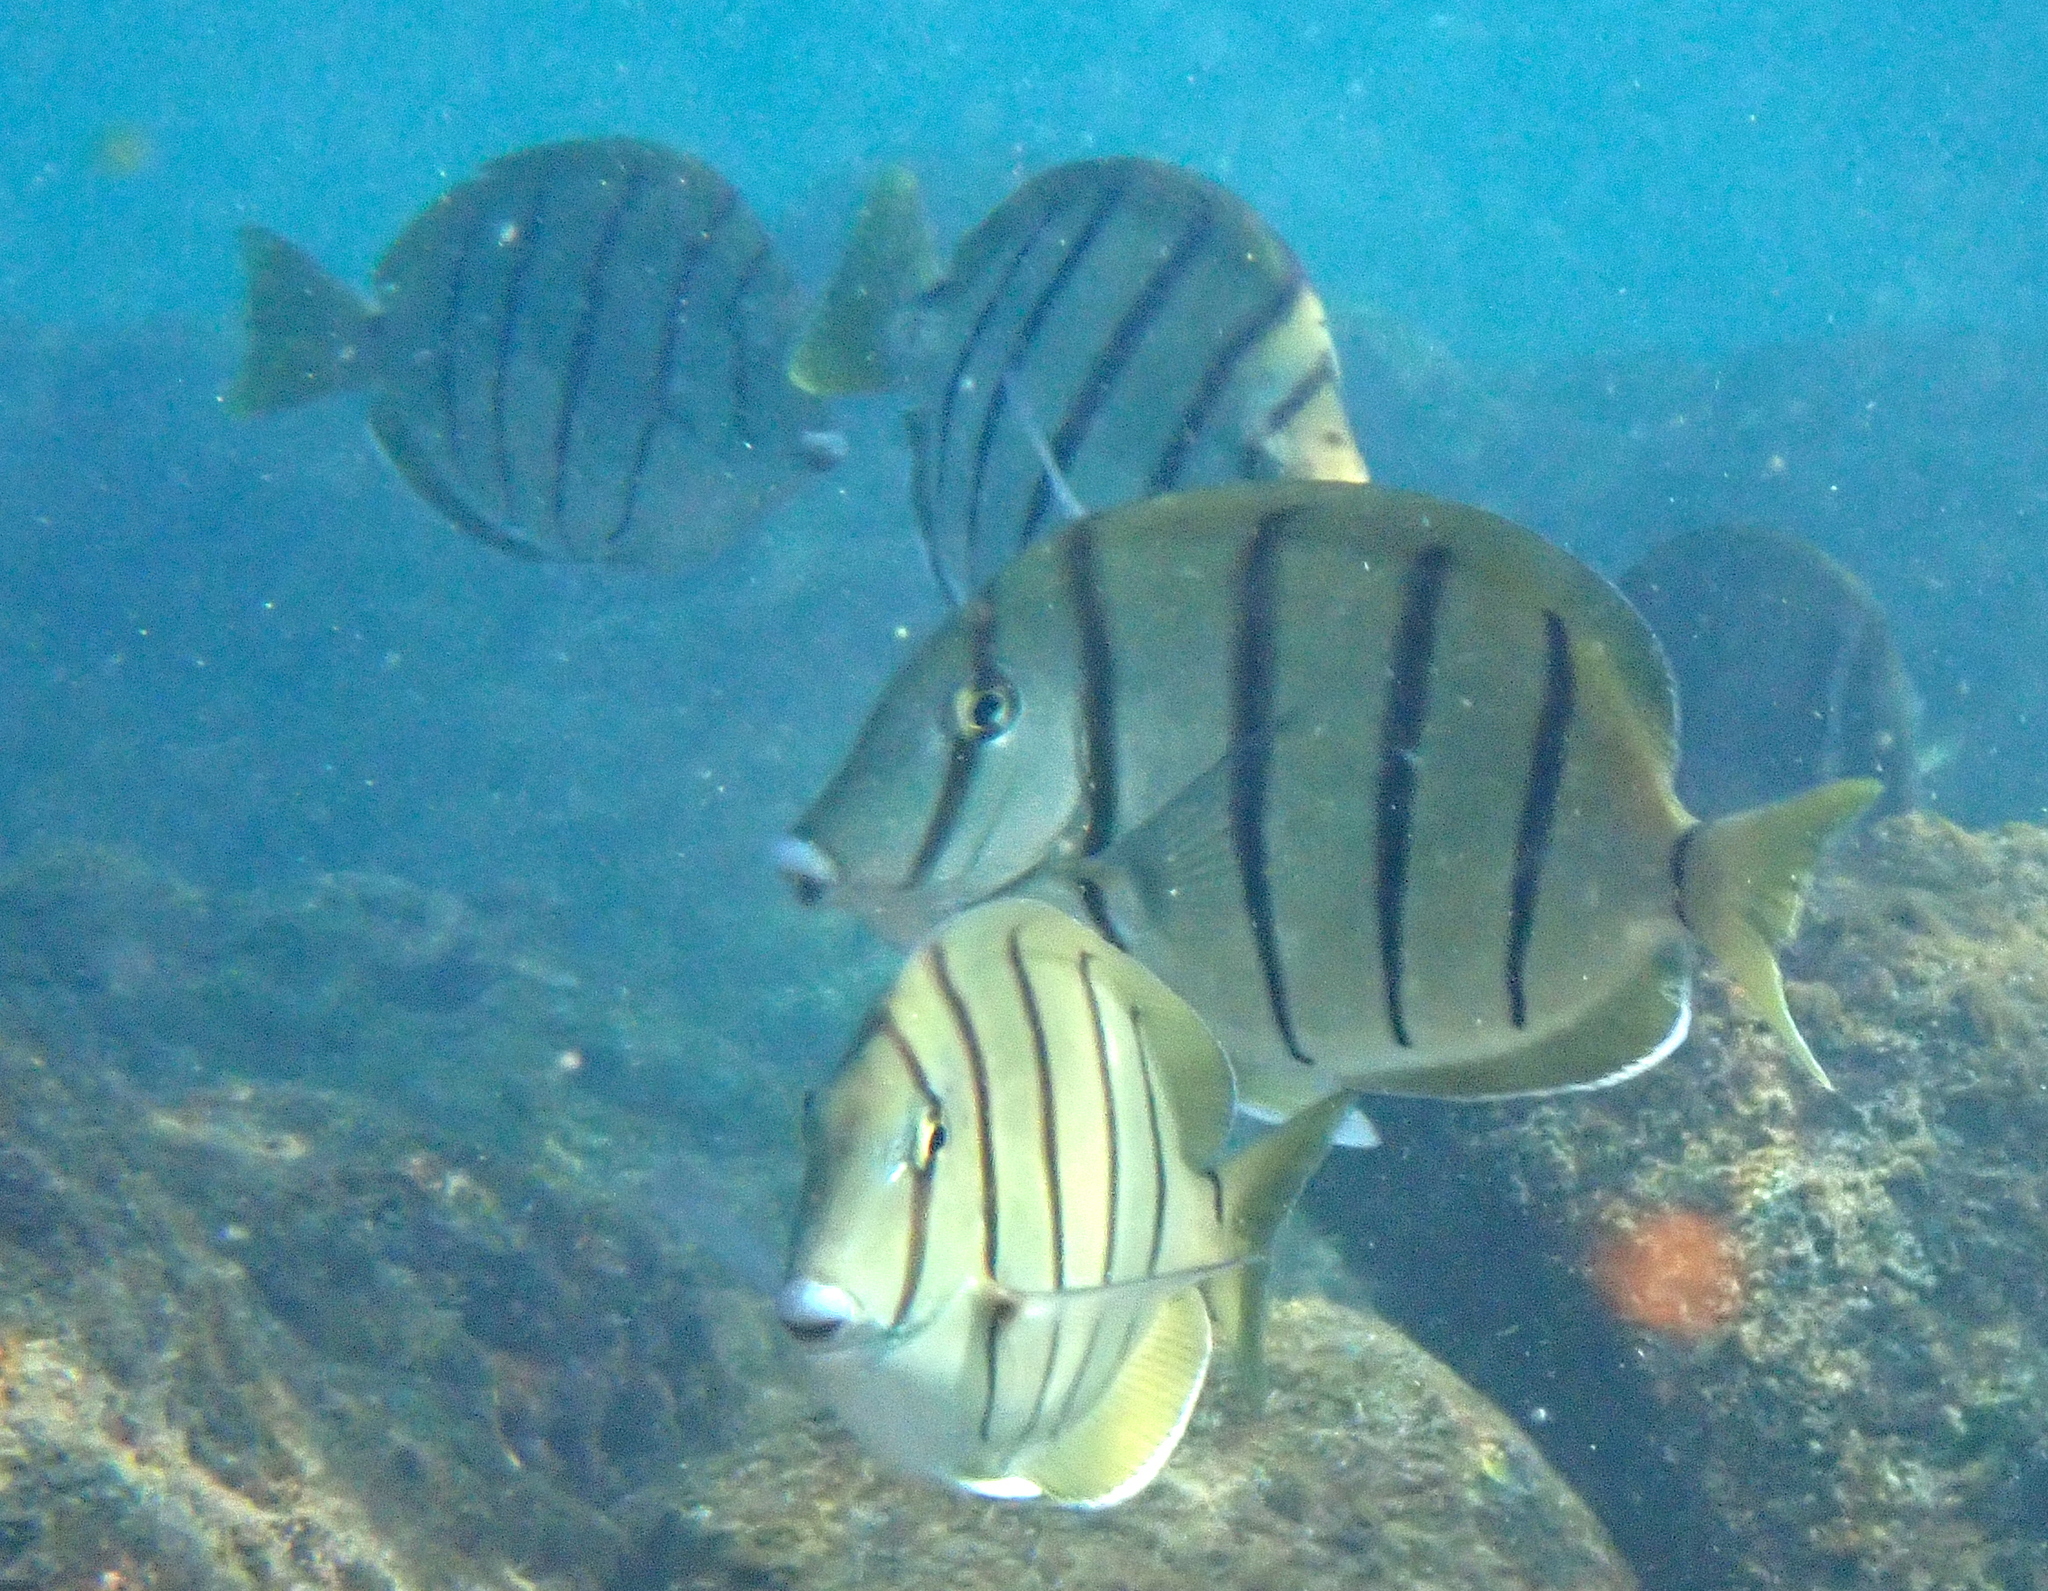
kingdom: Animalia
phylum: Chordata
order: Perciformes
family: Acanthuridae
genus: Acanthurus
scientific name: Acanthurus triostegus
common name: Convict surgeonfish
